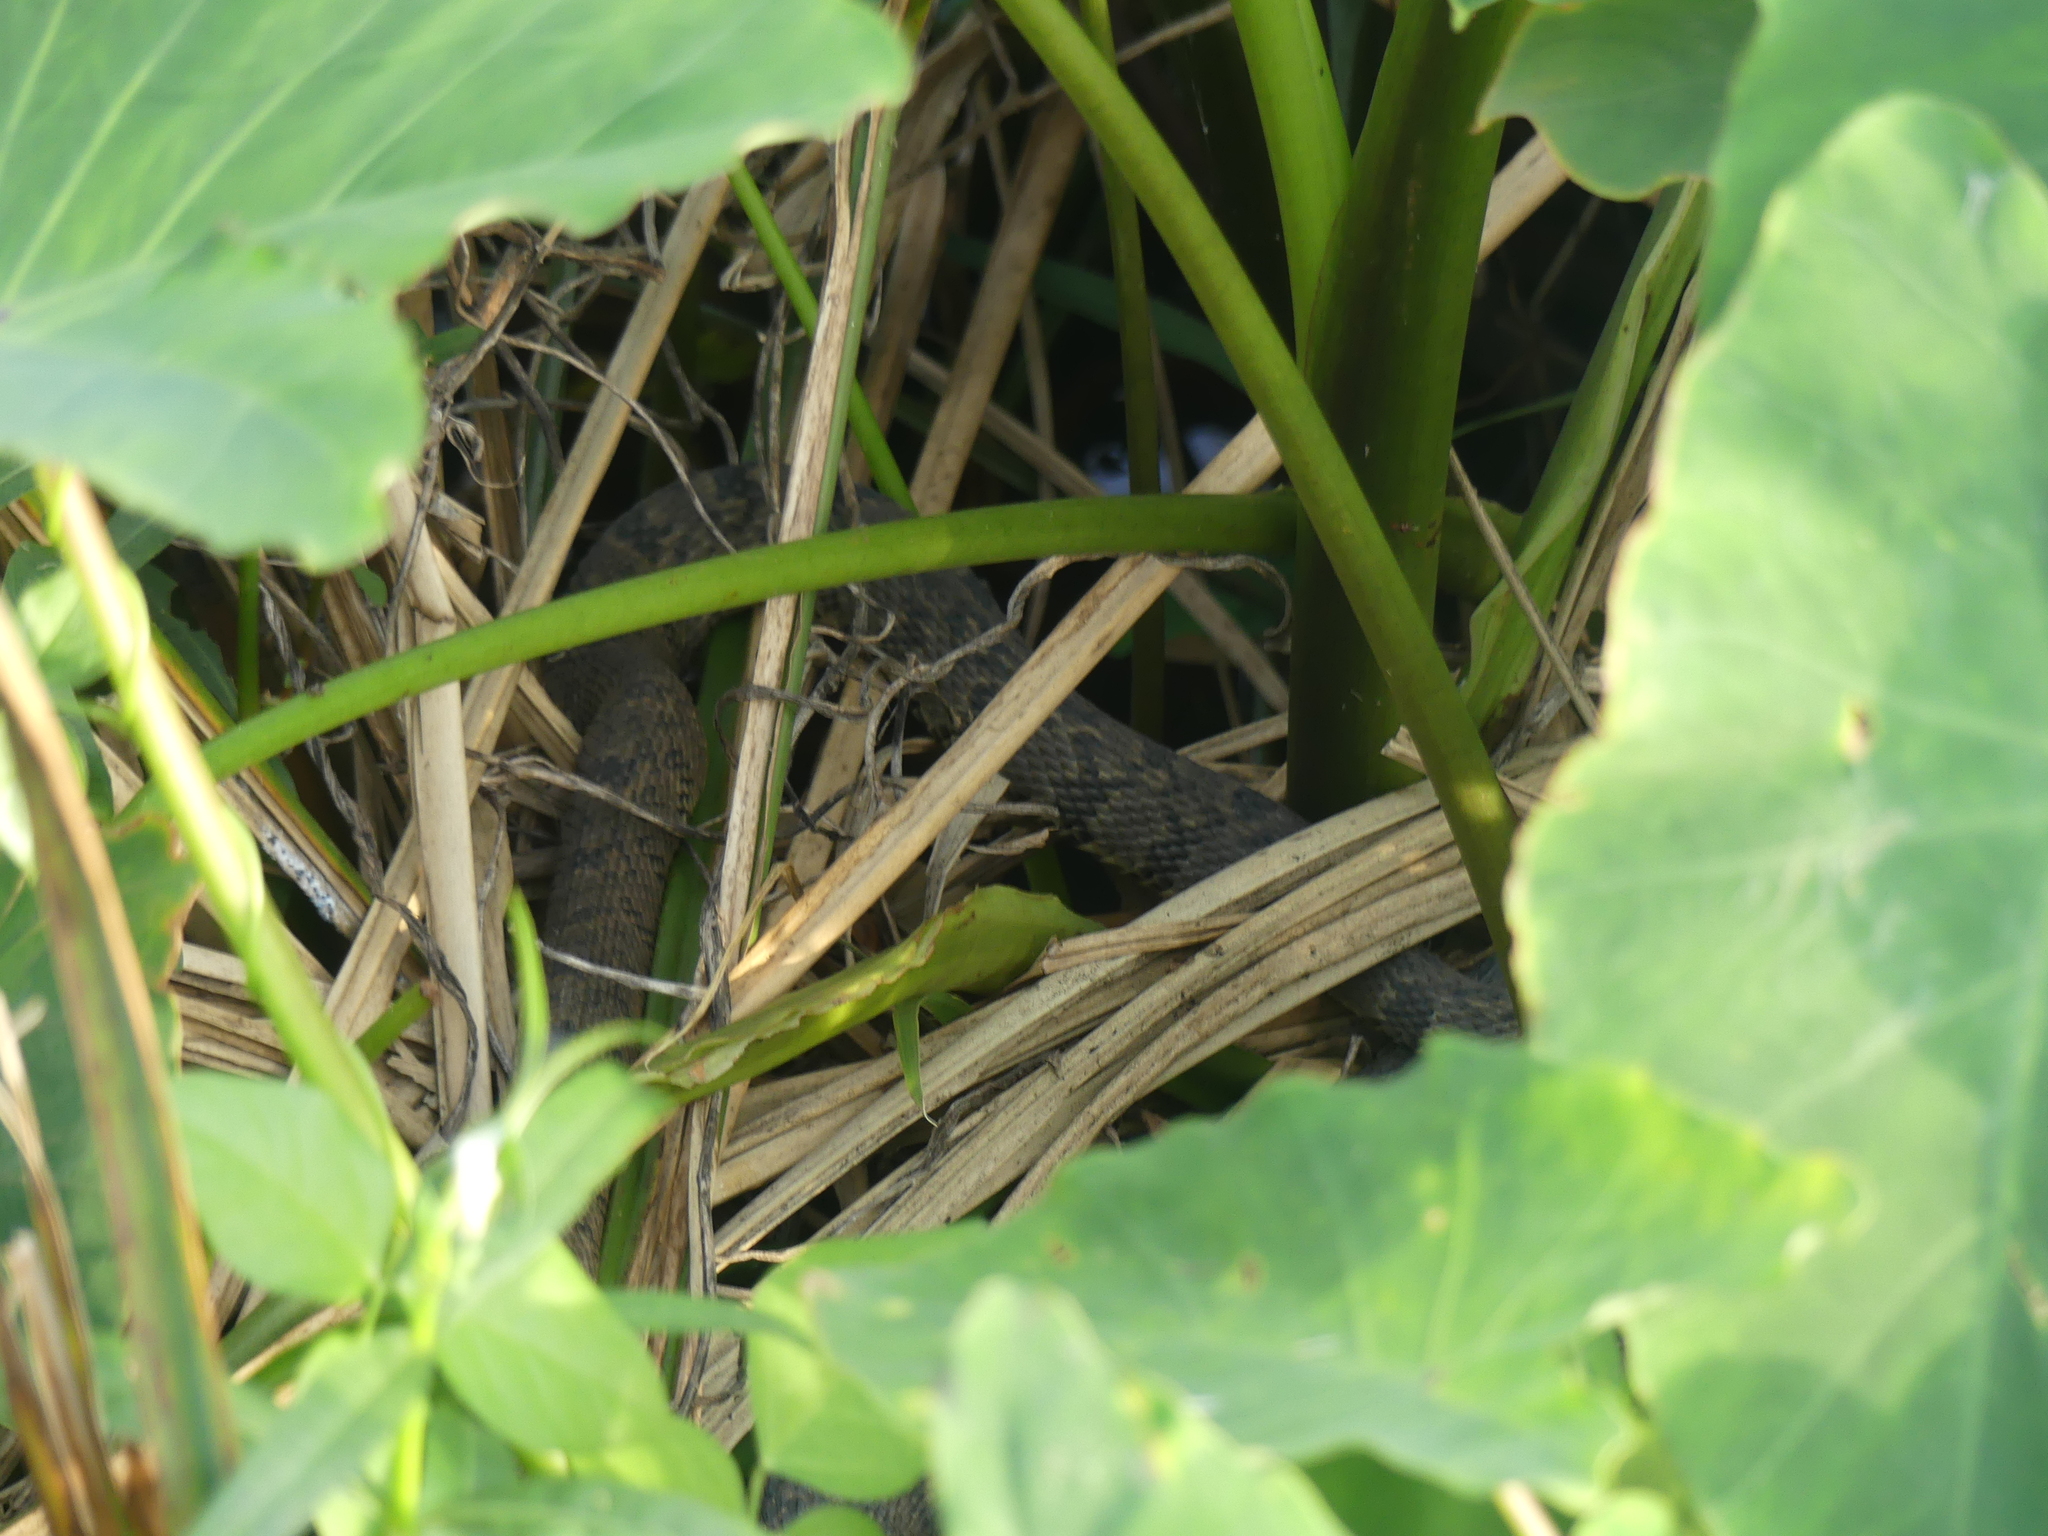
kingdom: Animalia
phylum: Chordata
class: Squamata
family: Colubridae
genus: Nerodia
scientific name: Nerodia rhombifer
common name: Diamondback water snake
